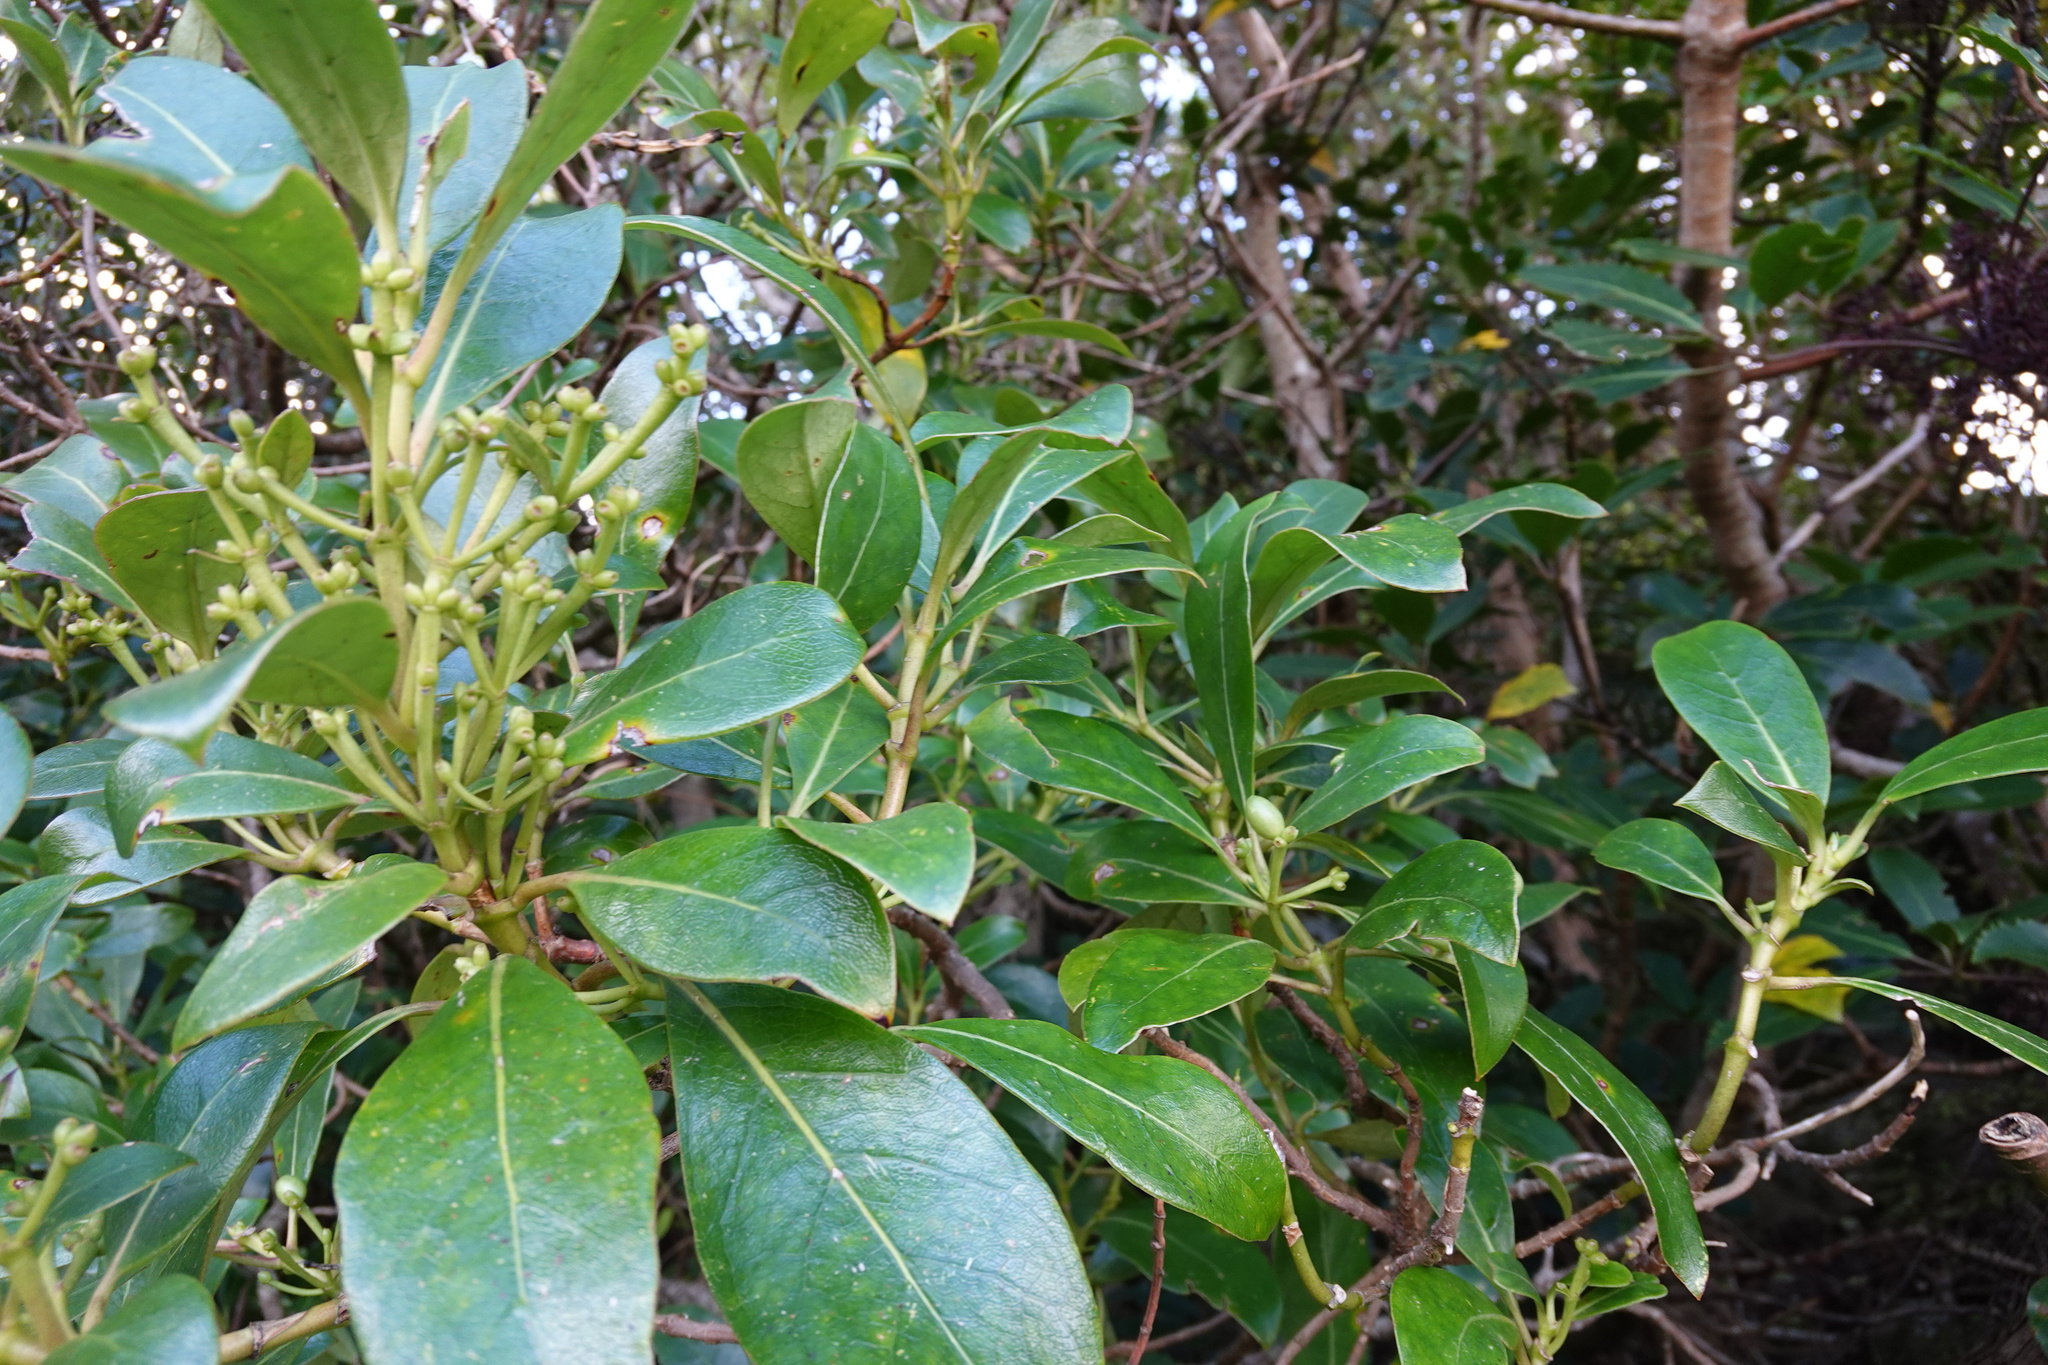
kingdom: Plantae
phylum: Tracheophyta
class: Magnoliopsida
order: Gentianales
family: Rubiaceae
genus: Coprosma
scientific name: Coprosma lucida
